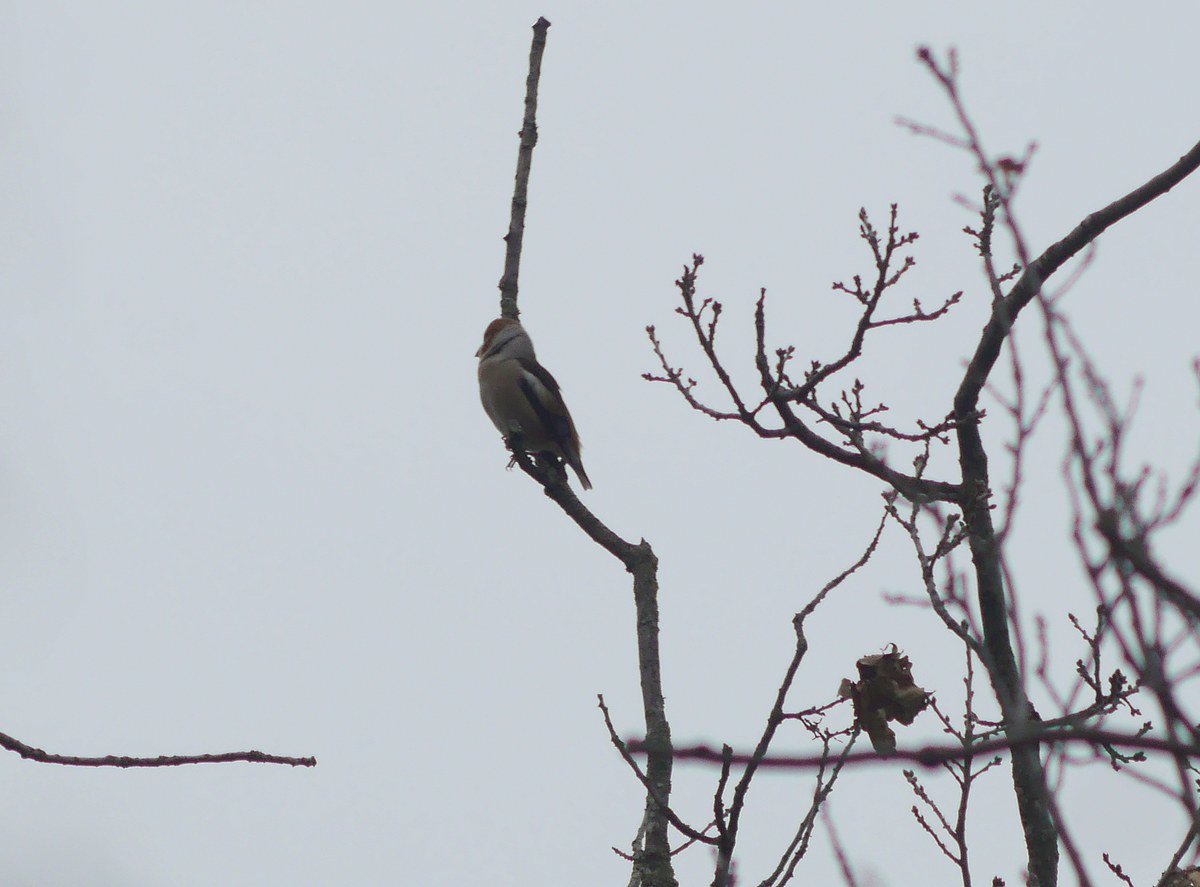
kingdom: Animalia
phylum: Chordata
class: Aves
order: Passeriformes
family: Fringillidae
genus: Coccothraustes
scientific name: Coccothraustes coccothraustes
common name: Hawfinch
